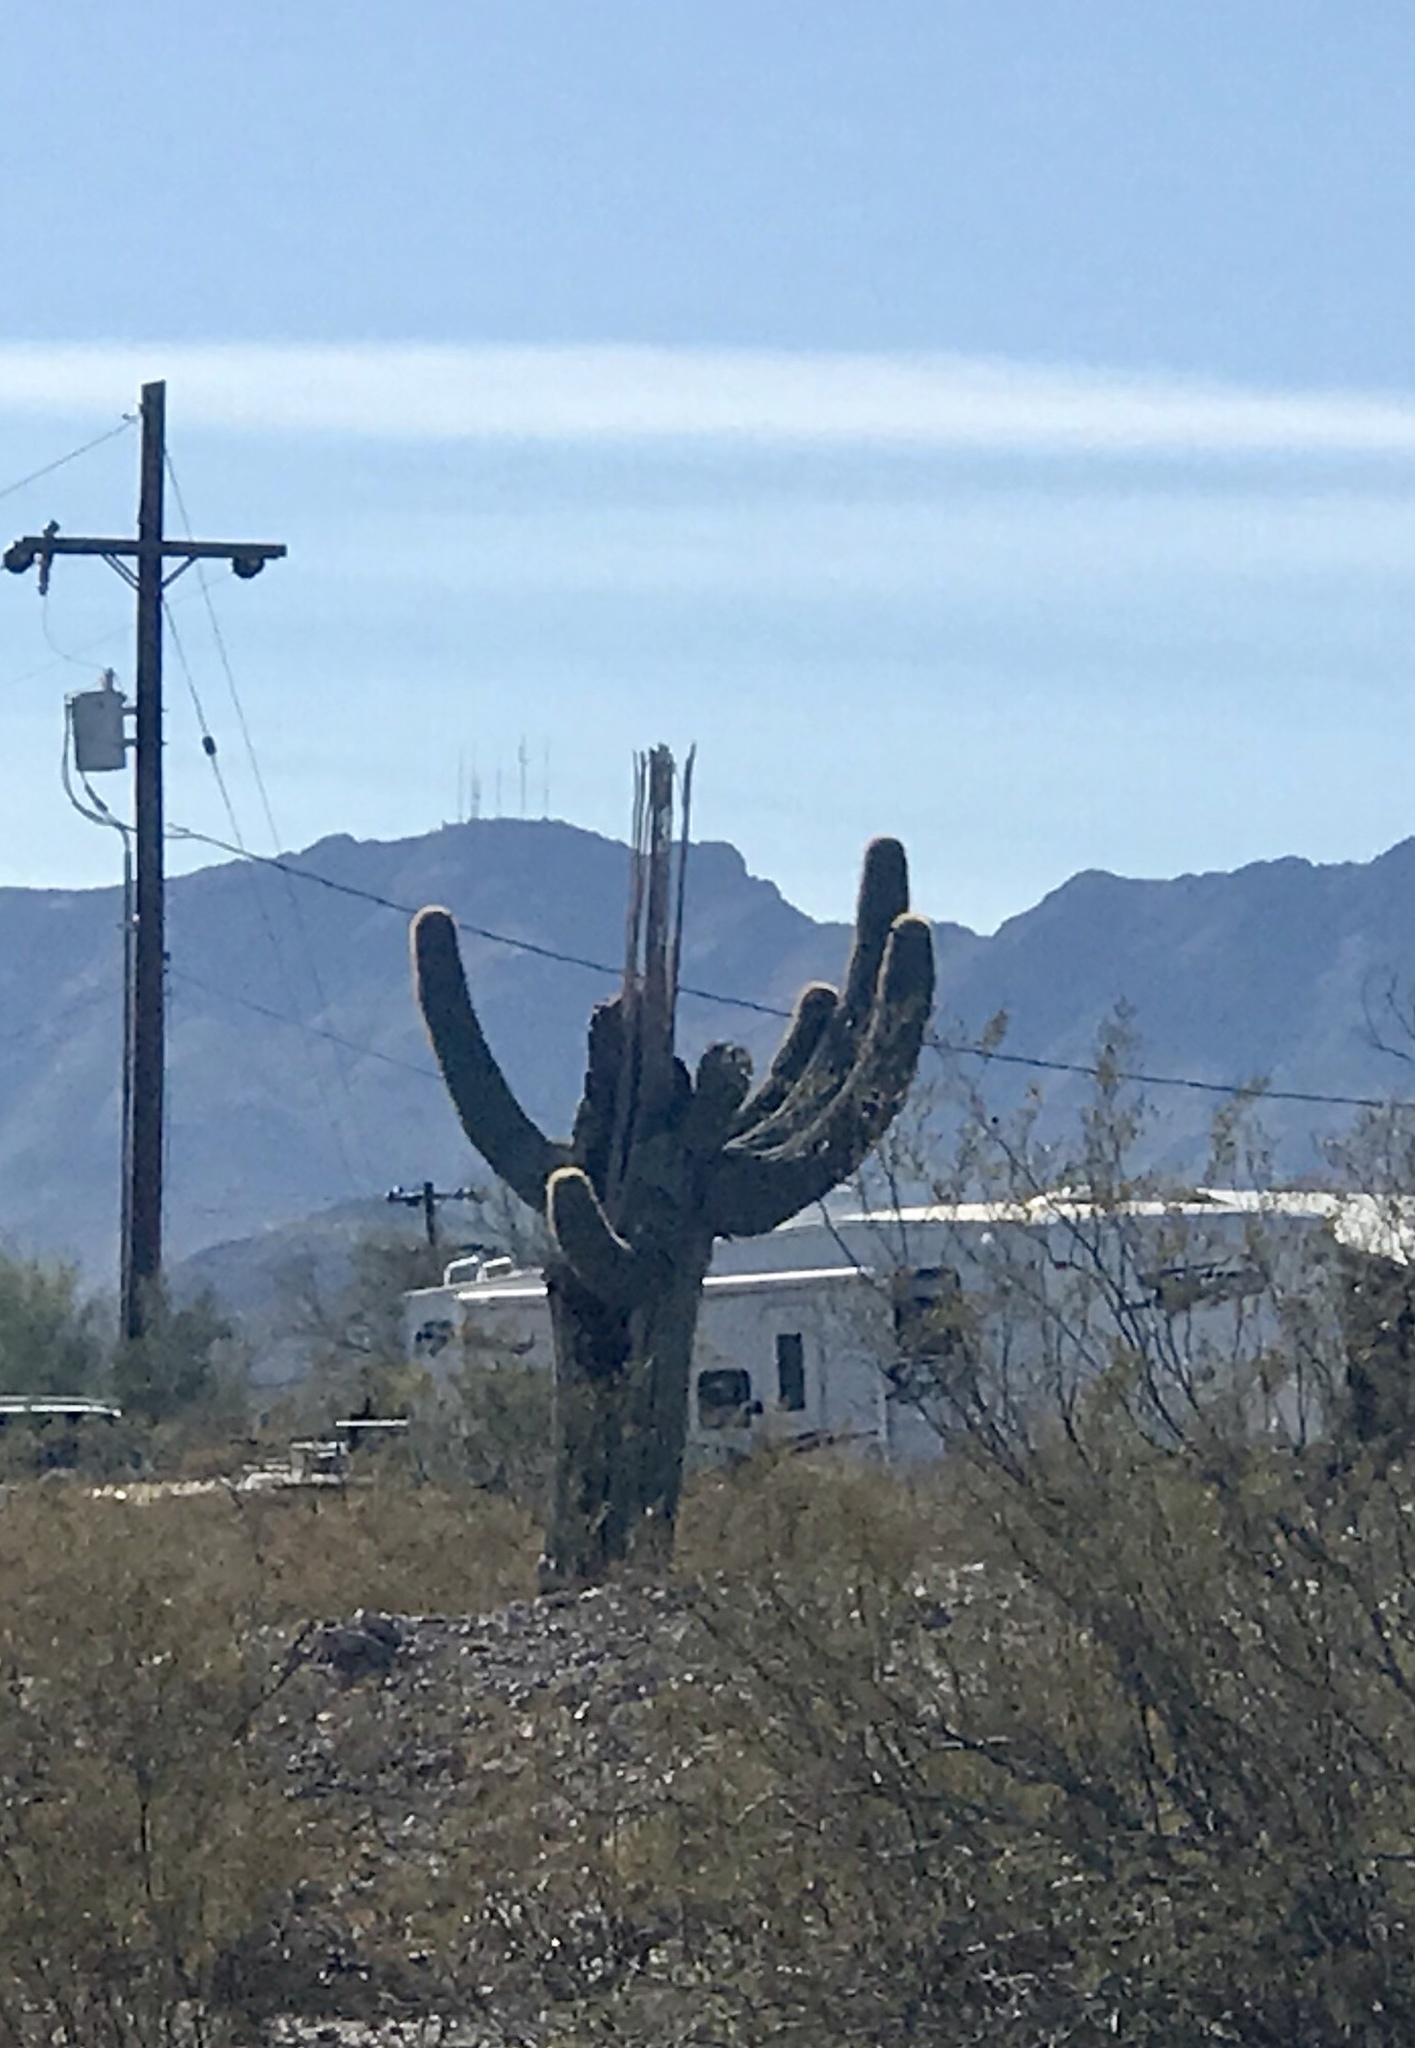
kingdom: Plantae
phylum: Tracheophyta
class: Magnoliopsida
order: Caryophyllales
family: Cactaceae
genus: Carnegiea
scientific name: Carnegiea gigantea
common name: Saguaro
